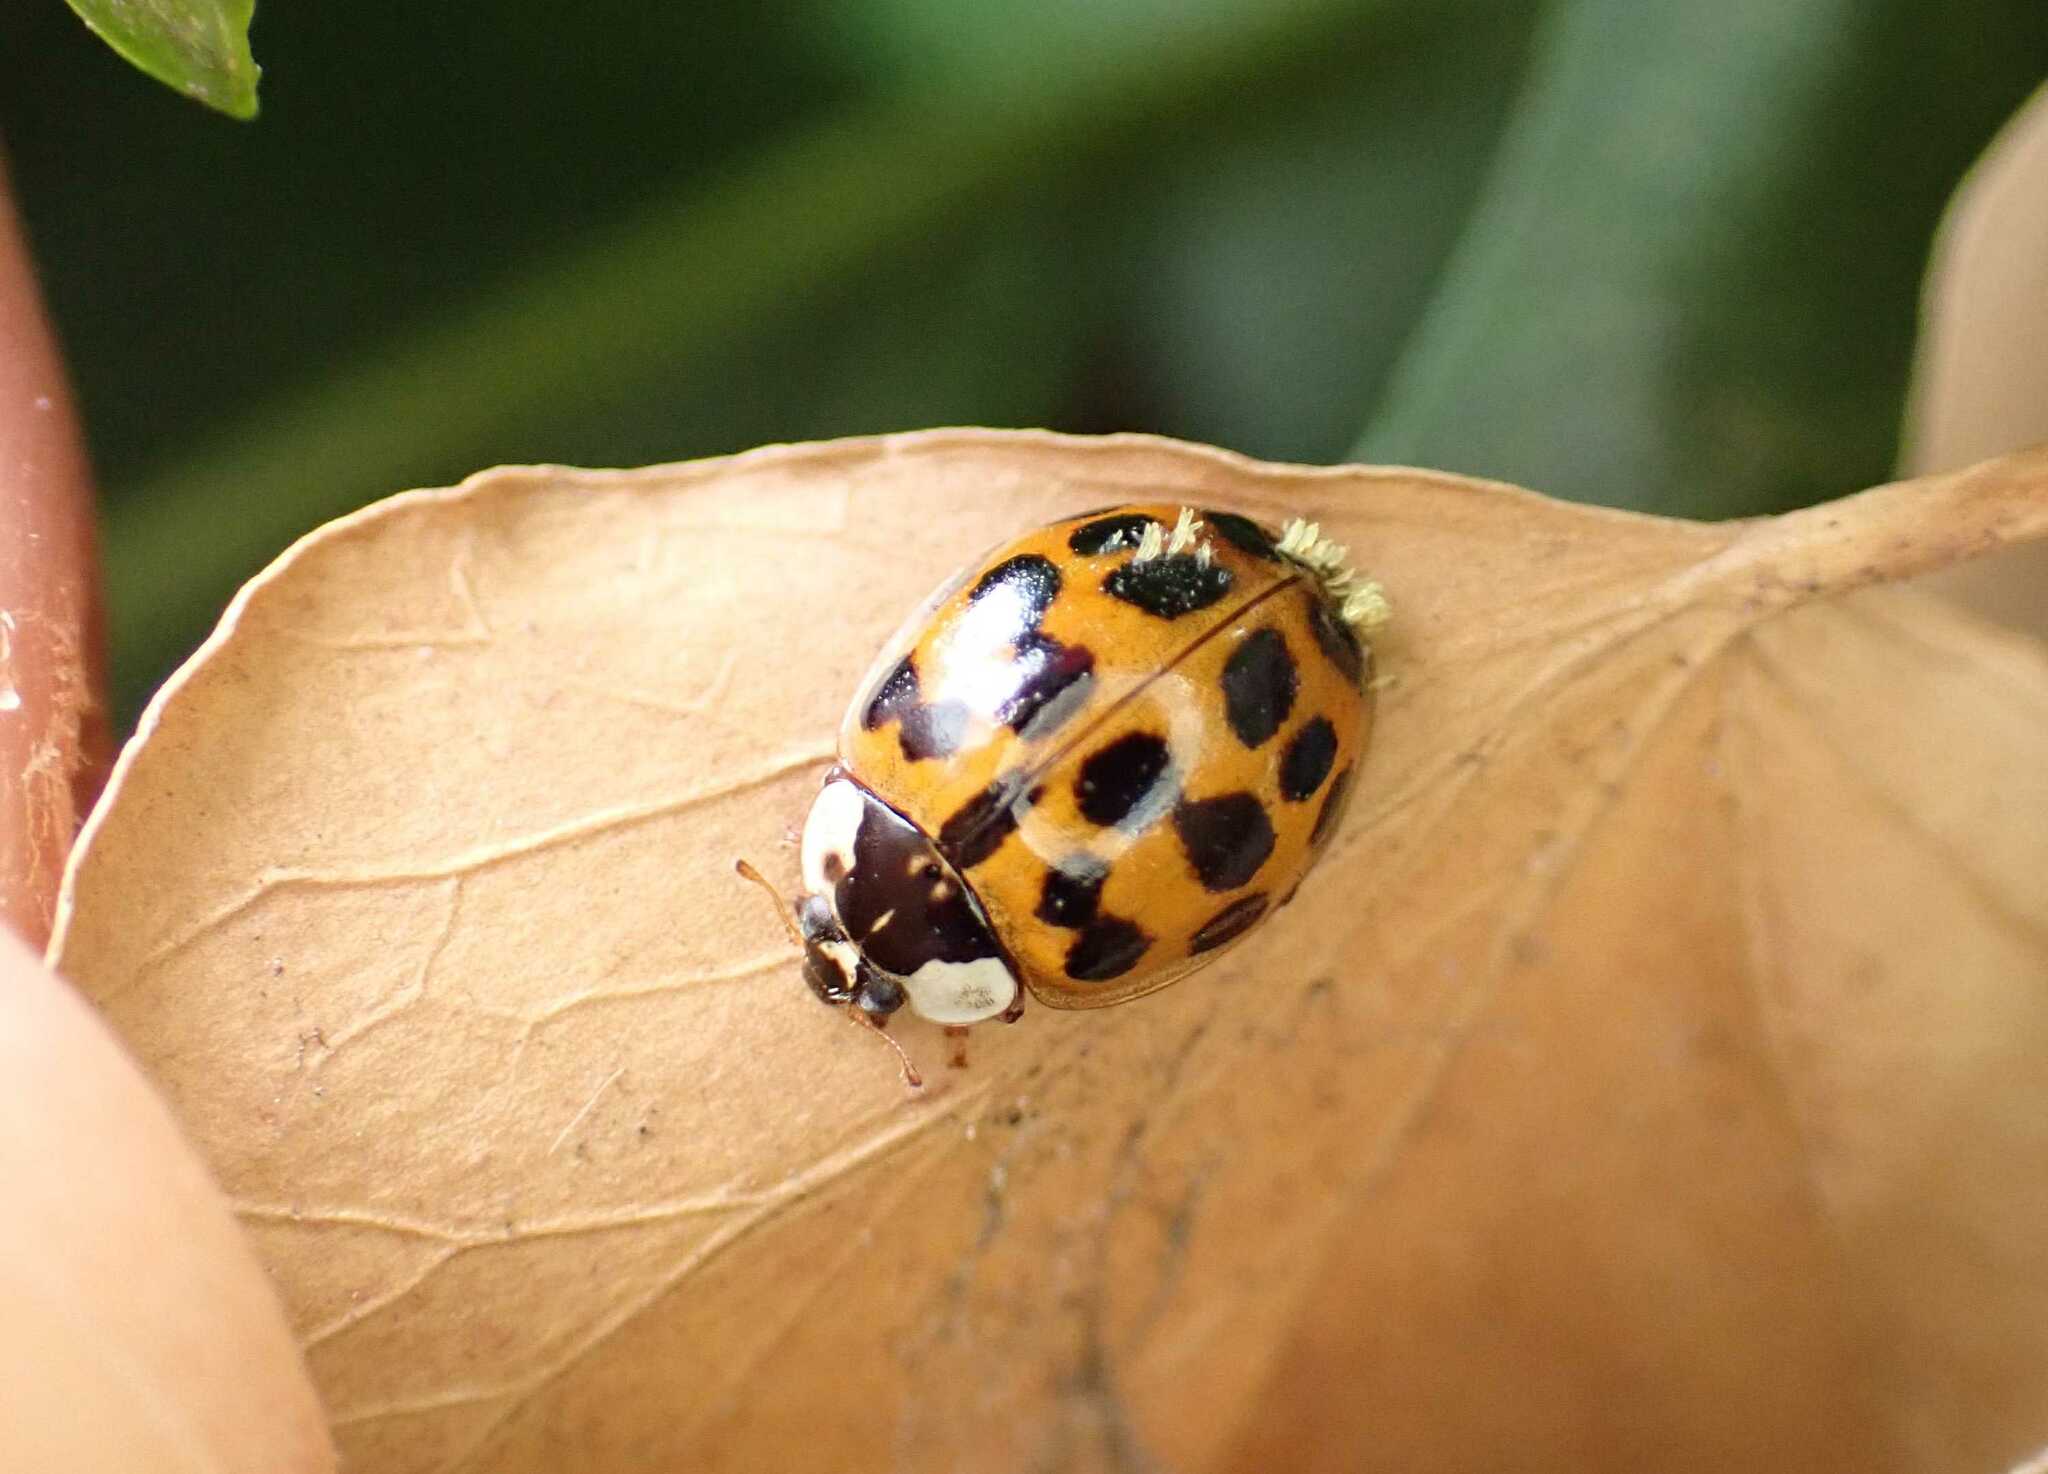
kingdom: Animalia
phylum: Arthropoda
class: Insecta
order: Coleoptera
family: Coccinellidae
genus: Harmonia
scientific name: Harmonia axyridis
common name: Harlequin ladybird
